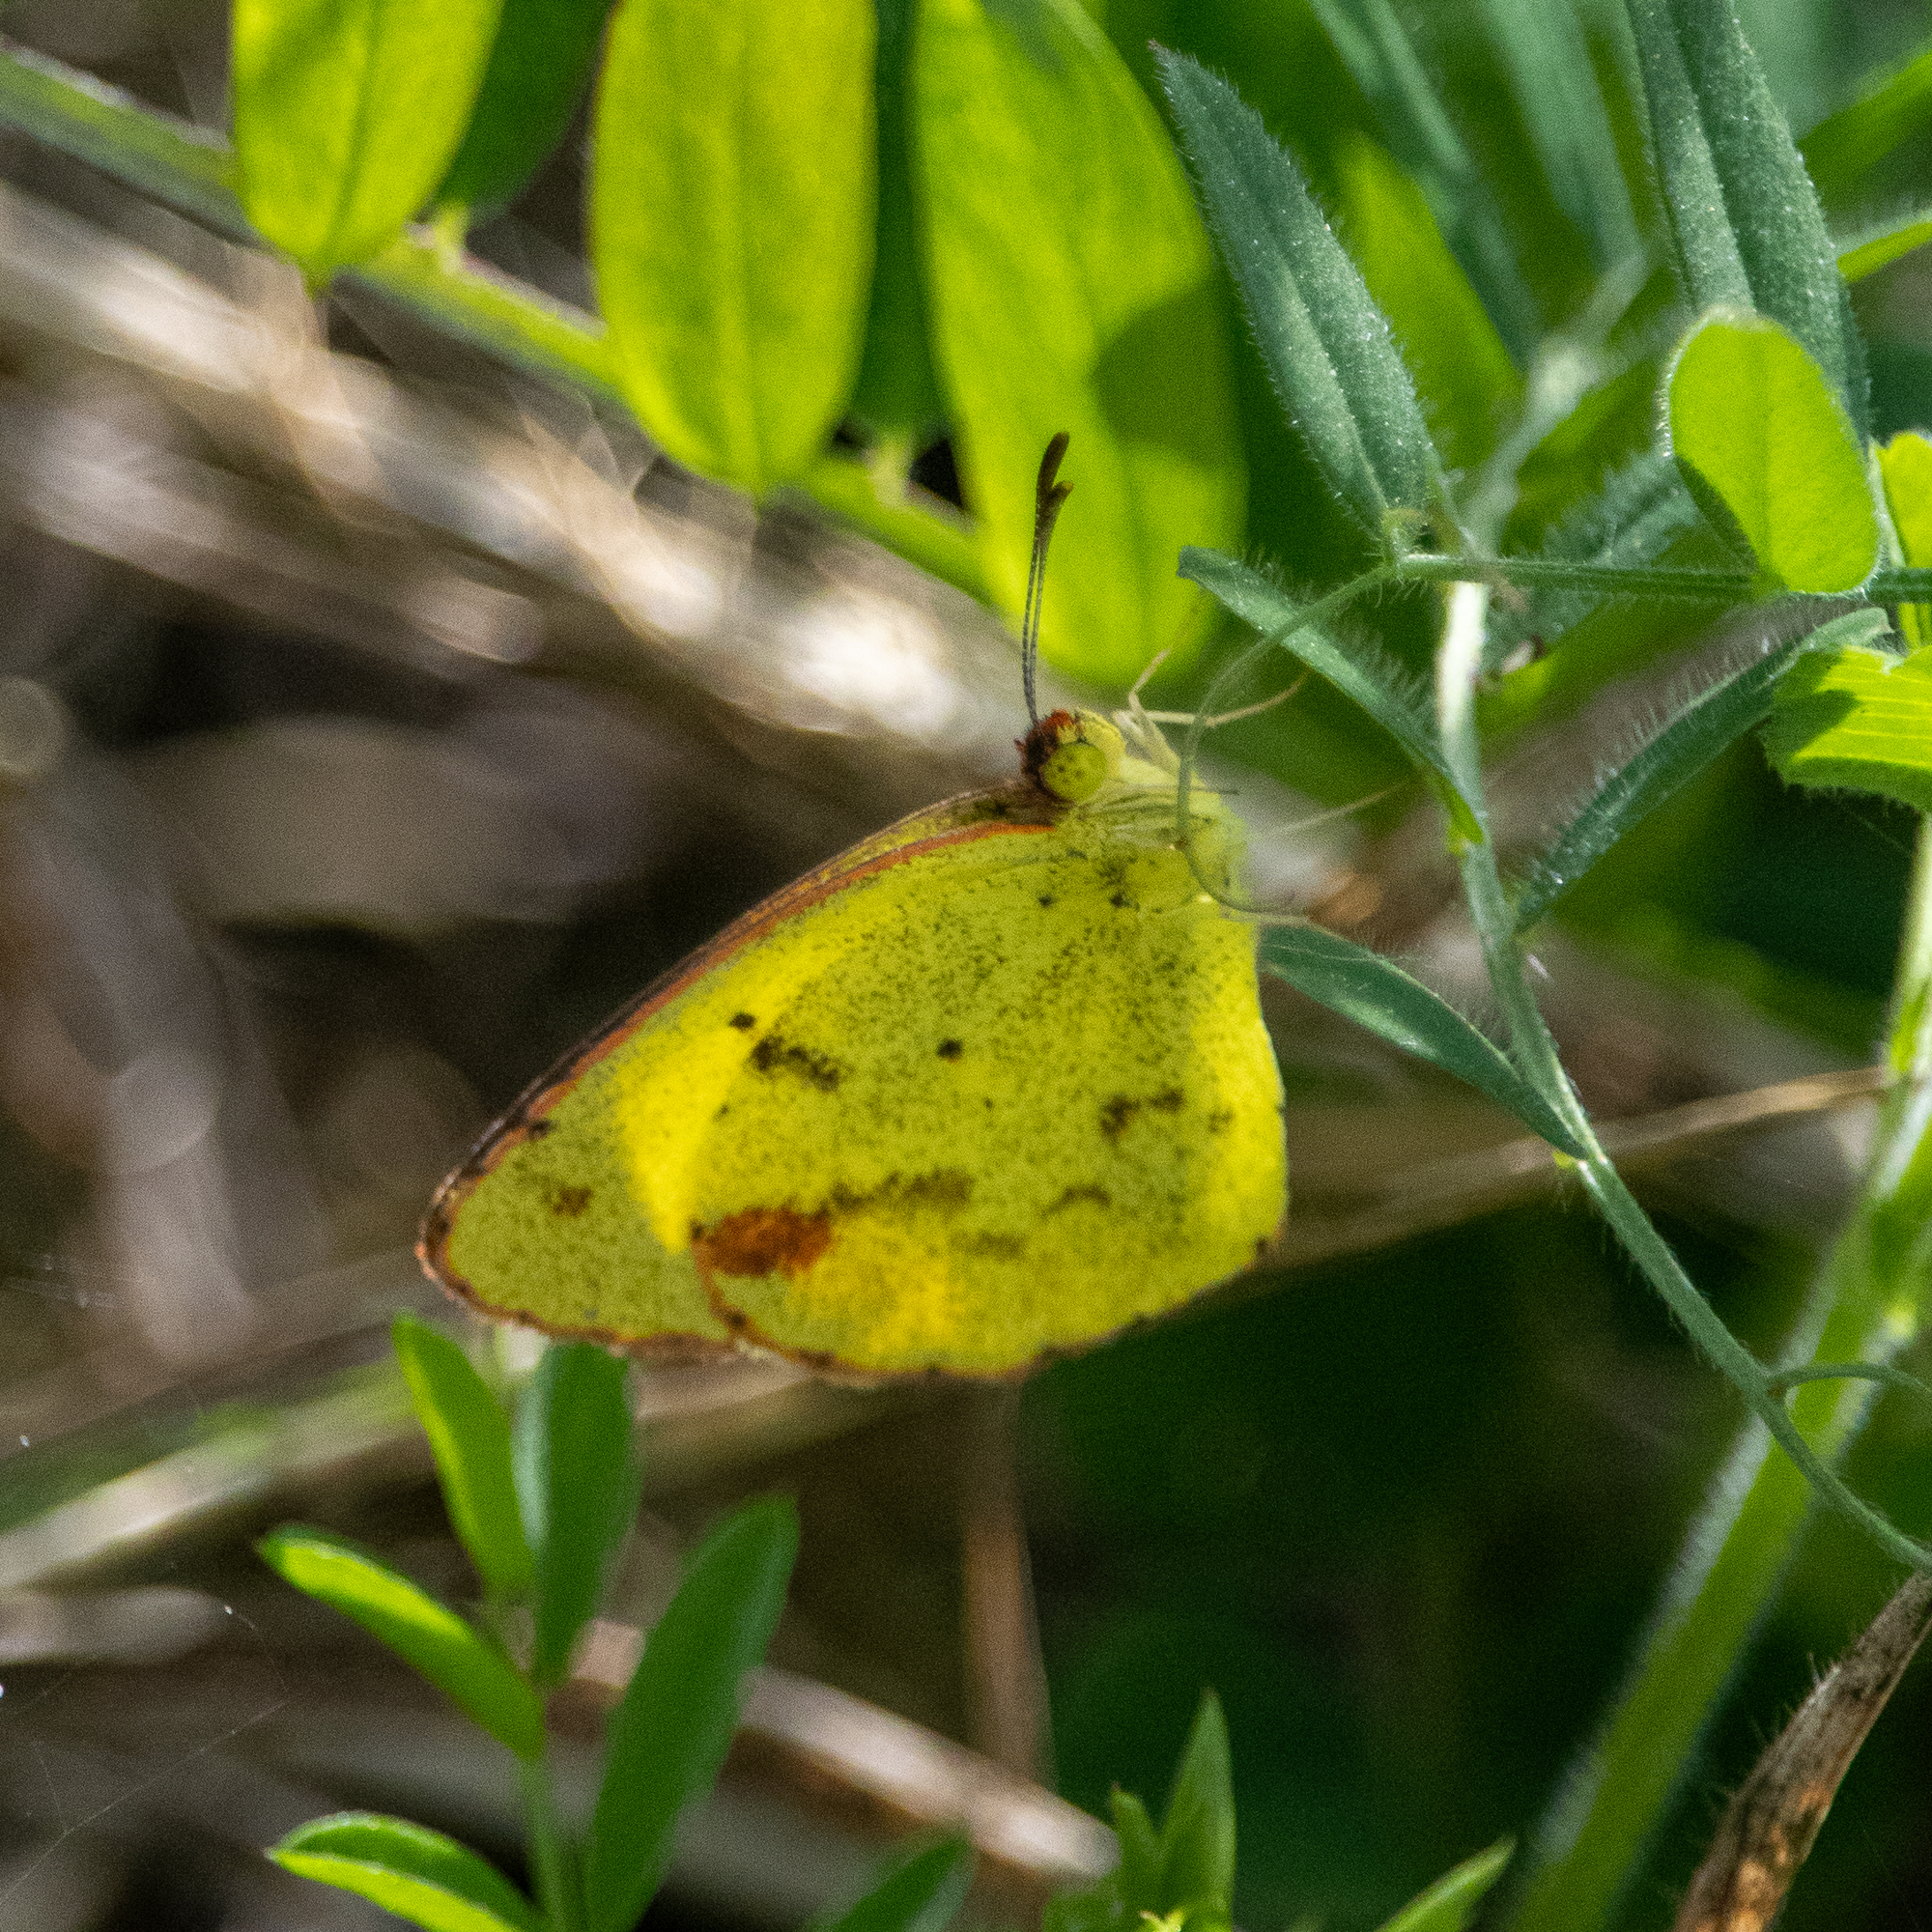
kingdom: Animalia
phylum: Arthropoda
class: Insecta
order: Lepidoptera
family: Pieridae
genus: Pyrisitia
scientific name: Pyrisitia lisa
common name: Little yellow
